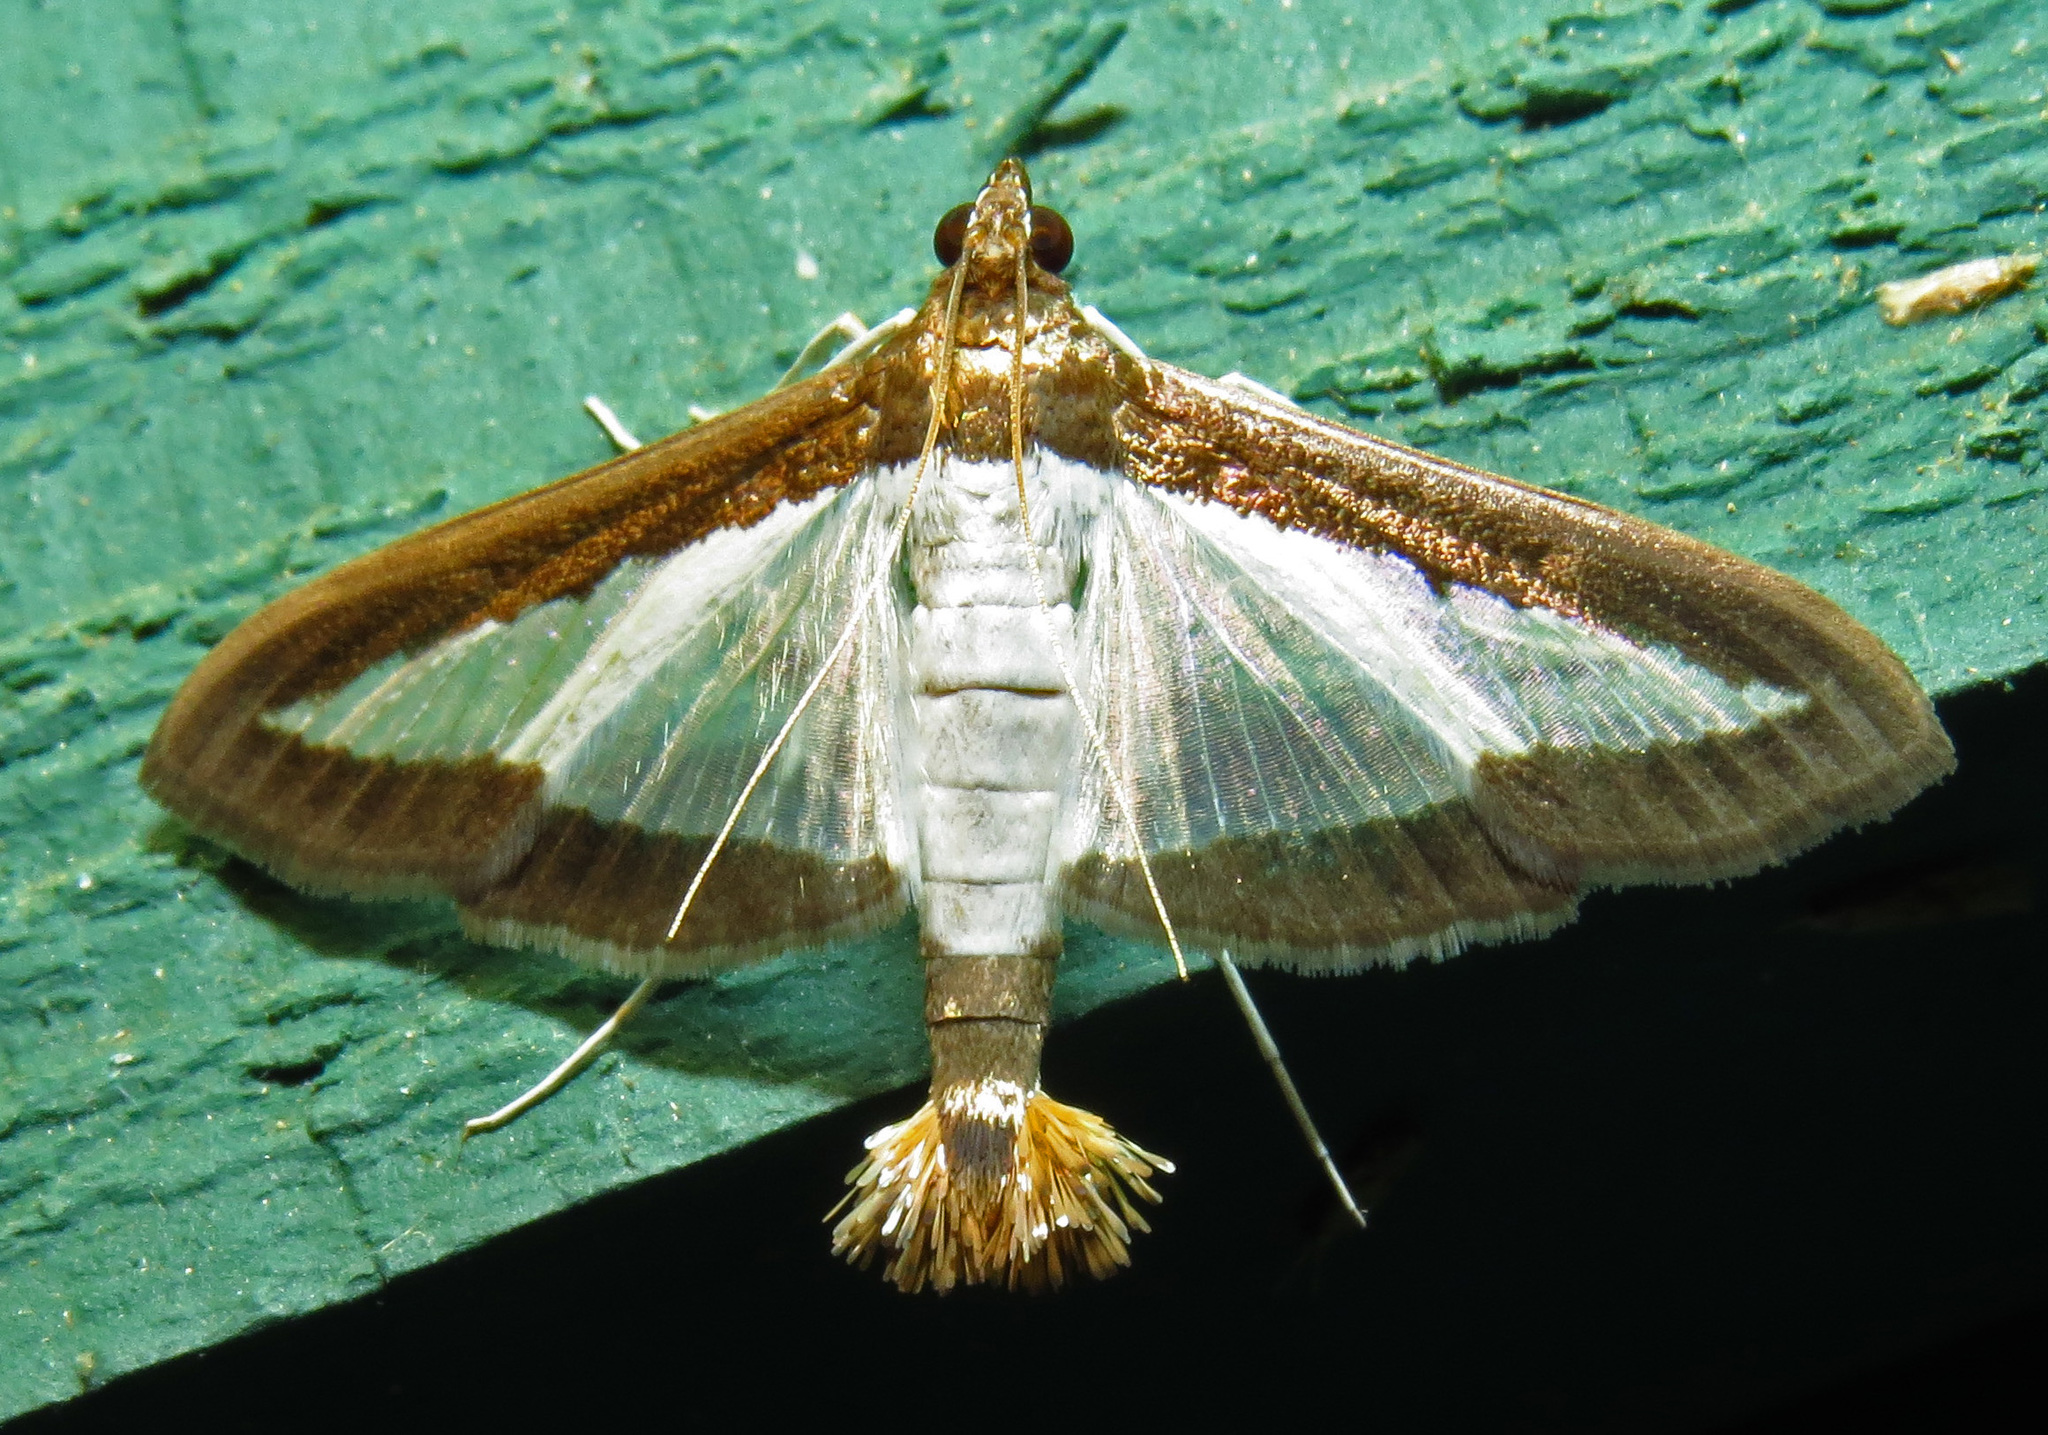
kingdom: Animalia
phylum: Arthropoda
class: Insecta
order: Lepidoptera
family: Crambidae
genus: Diaphania
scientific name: Diaphania hyalinata
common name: Melonworm
